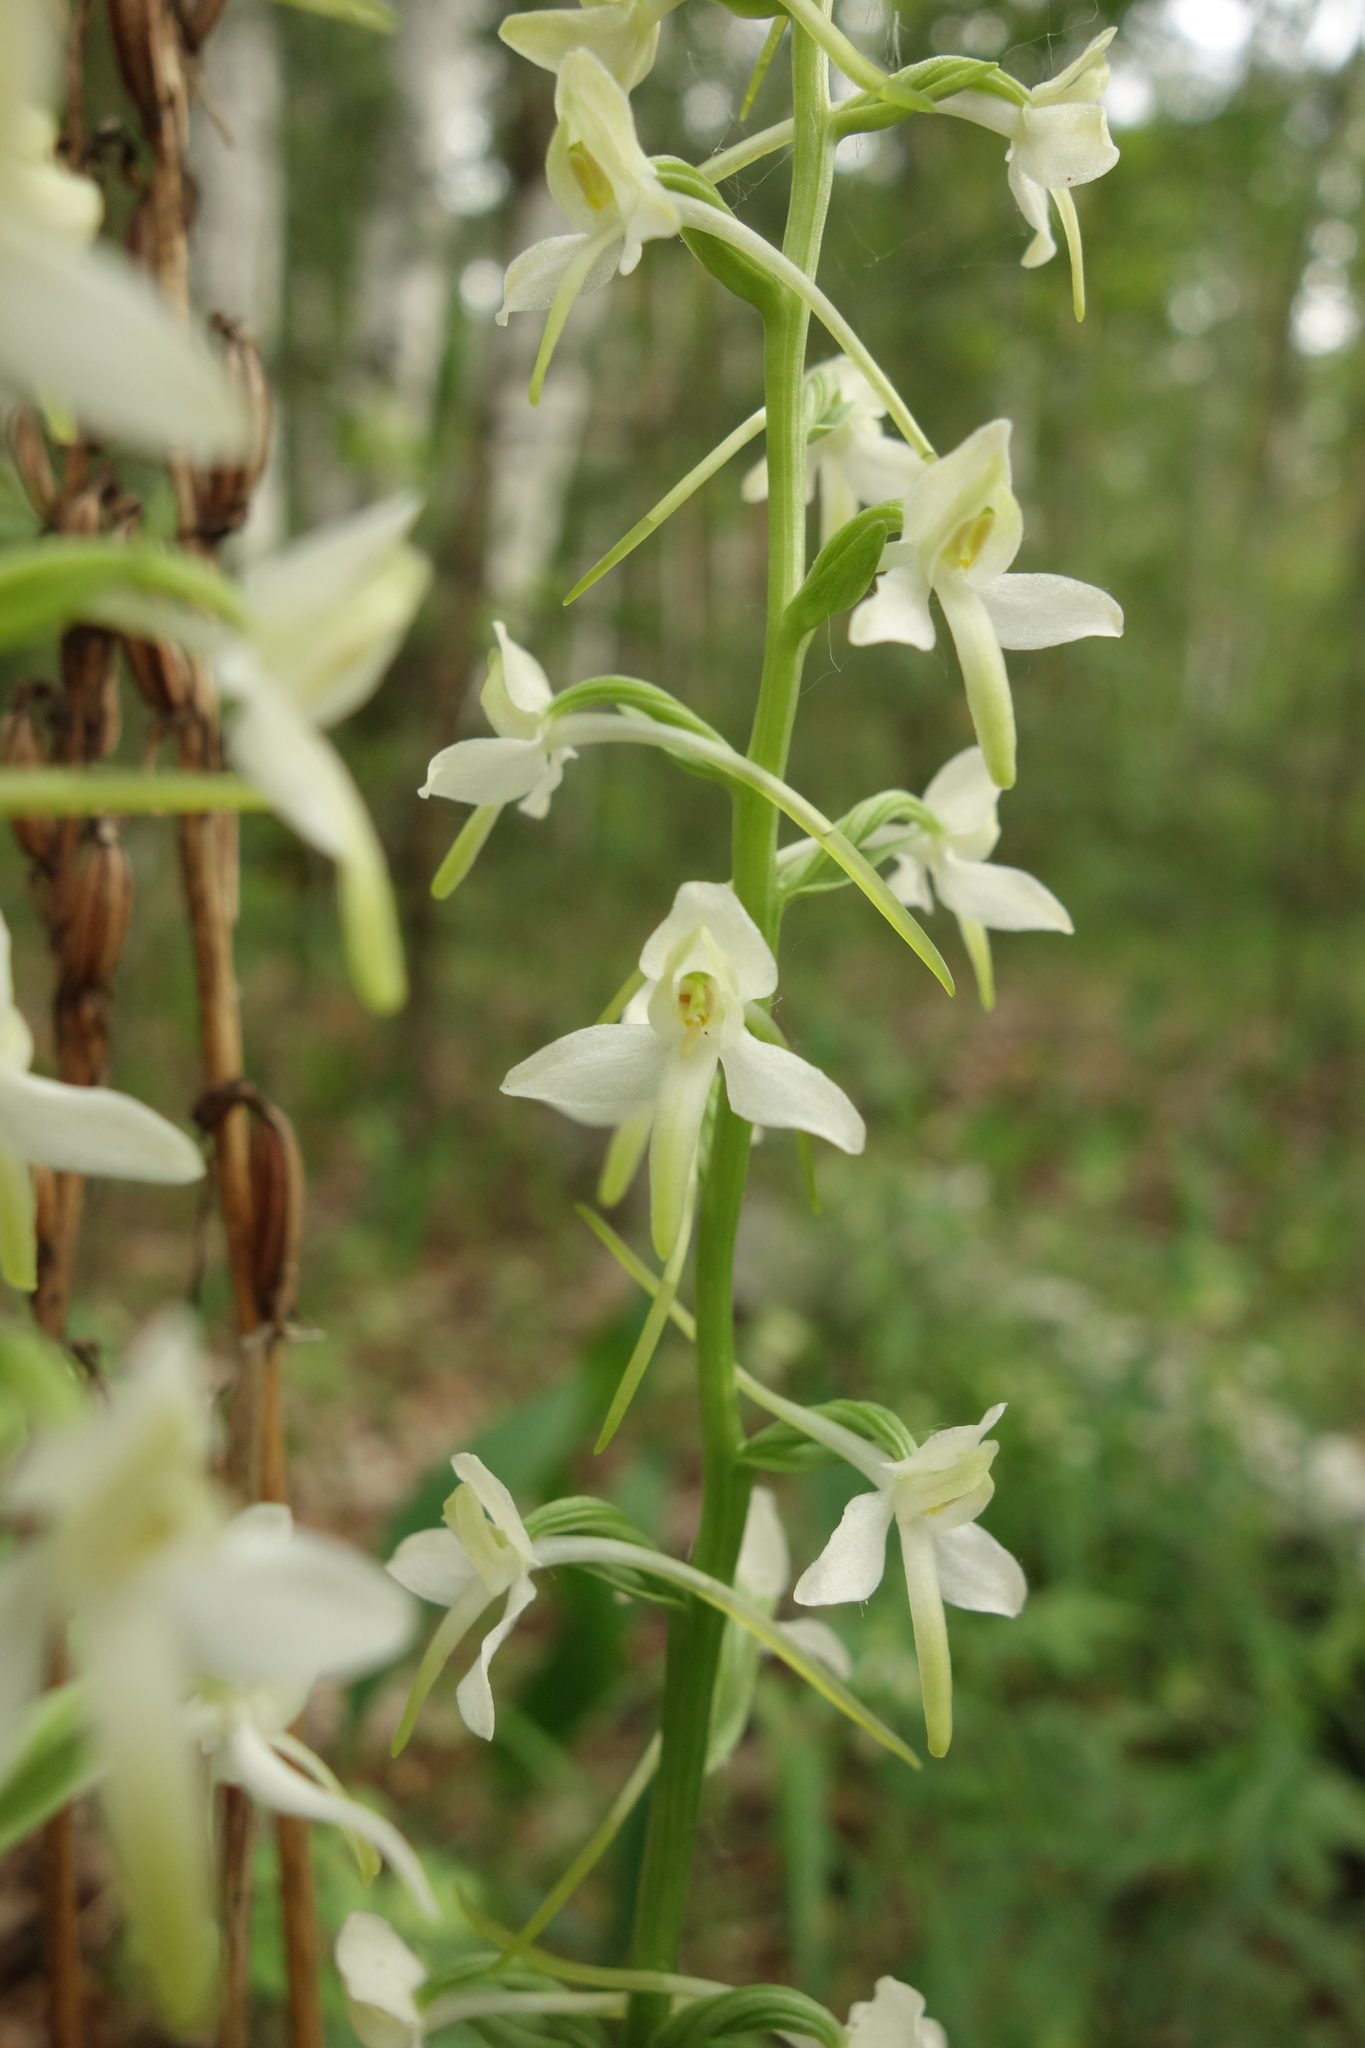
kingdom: Plantae
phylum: Tracheophyta
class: Liliopsida
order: Asparagales
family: Orchidaceae
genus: Platanthera
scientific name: Platanthera bifolia
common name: Lesser butterfly-orchid
